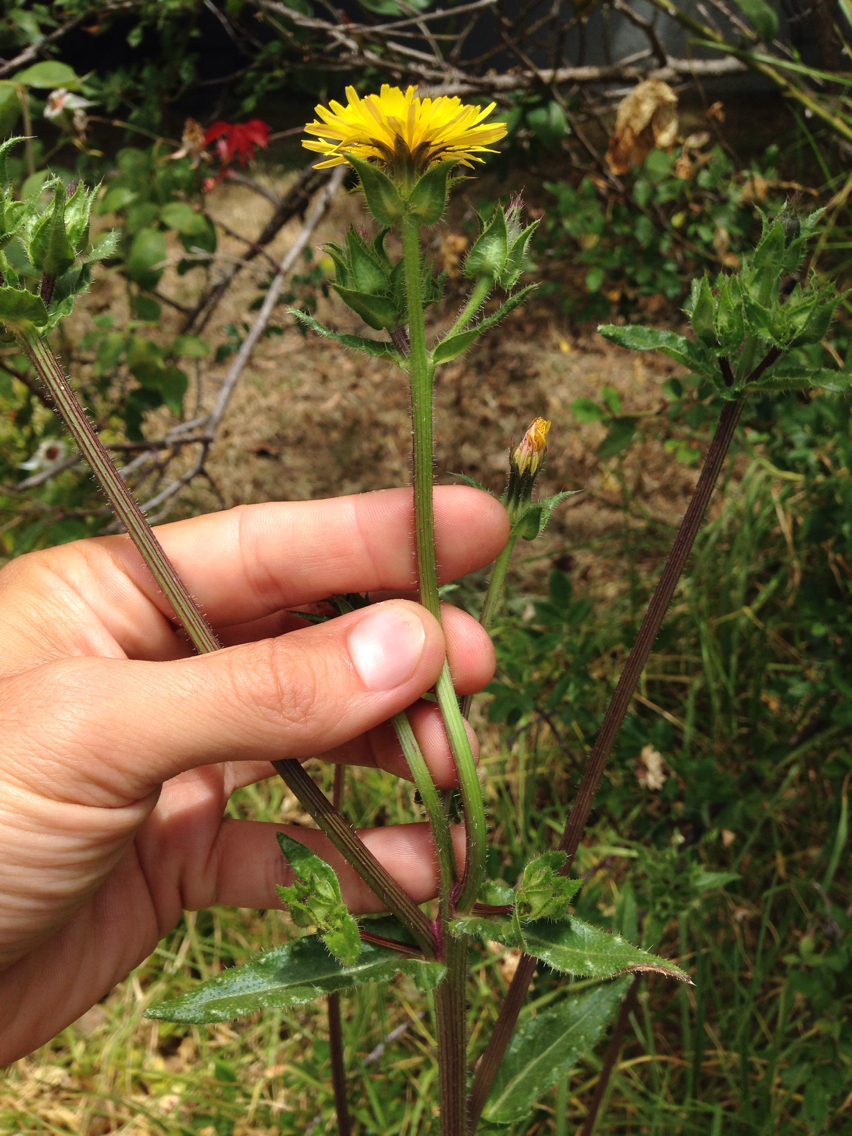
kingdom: Plantae
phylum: Tracheophyta
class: Magnoliopsida
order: Asterales
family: Asteraceae
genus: Helminthotheca
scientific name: Helminthotheca echioides
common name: Ox-tongue
